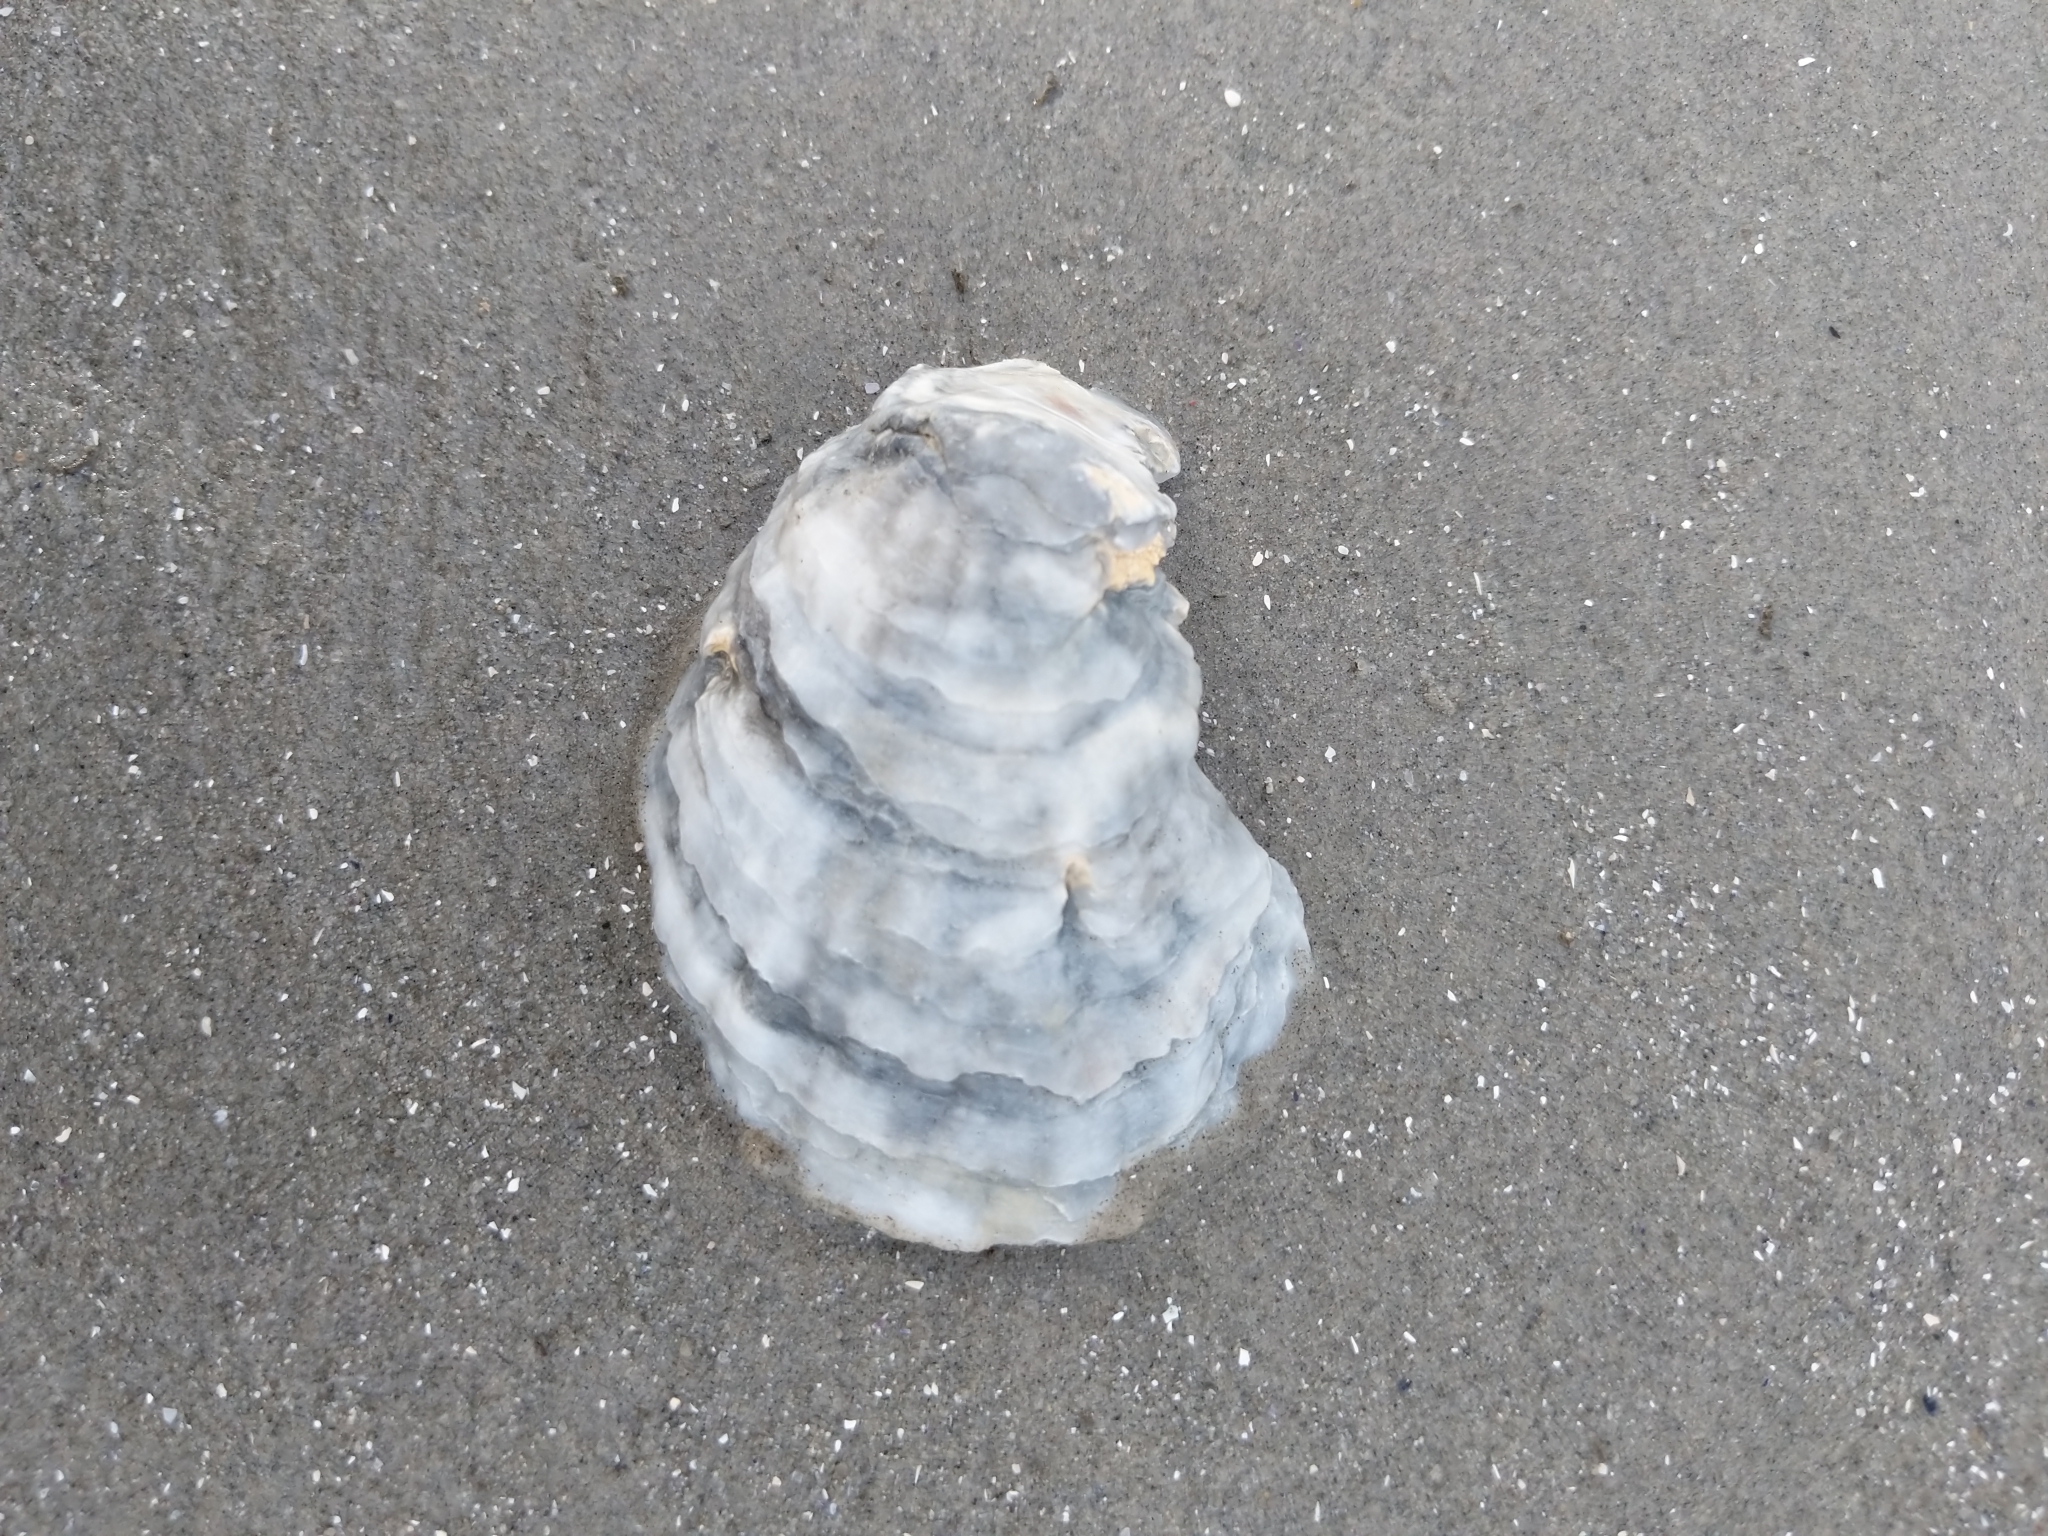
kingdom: Animalia
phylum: Mollusca
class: Bivalvia
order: Ostreida
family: Ostreidae
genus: Crassostrea
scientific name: Crassostrea virginica
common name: American oyster
